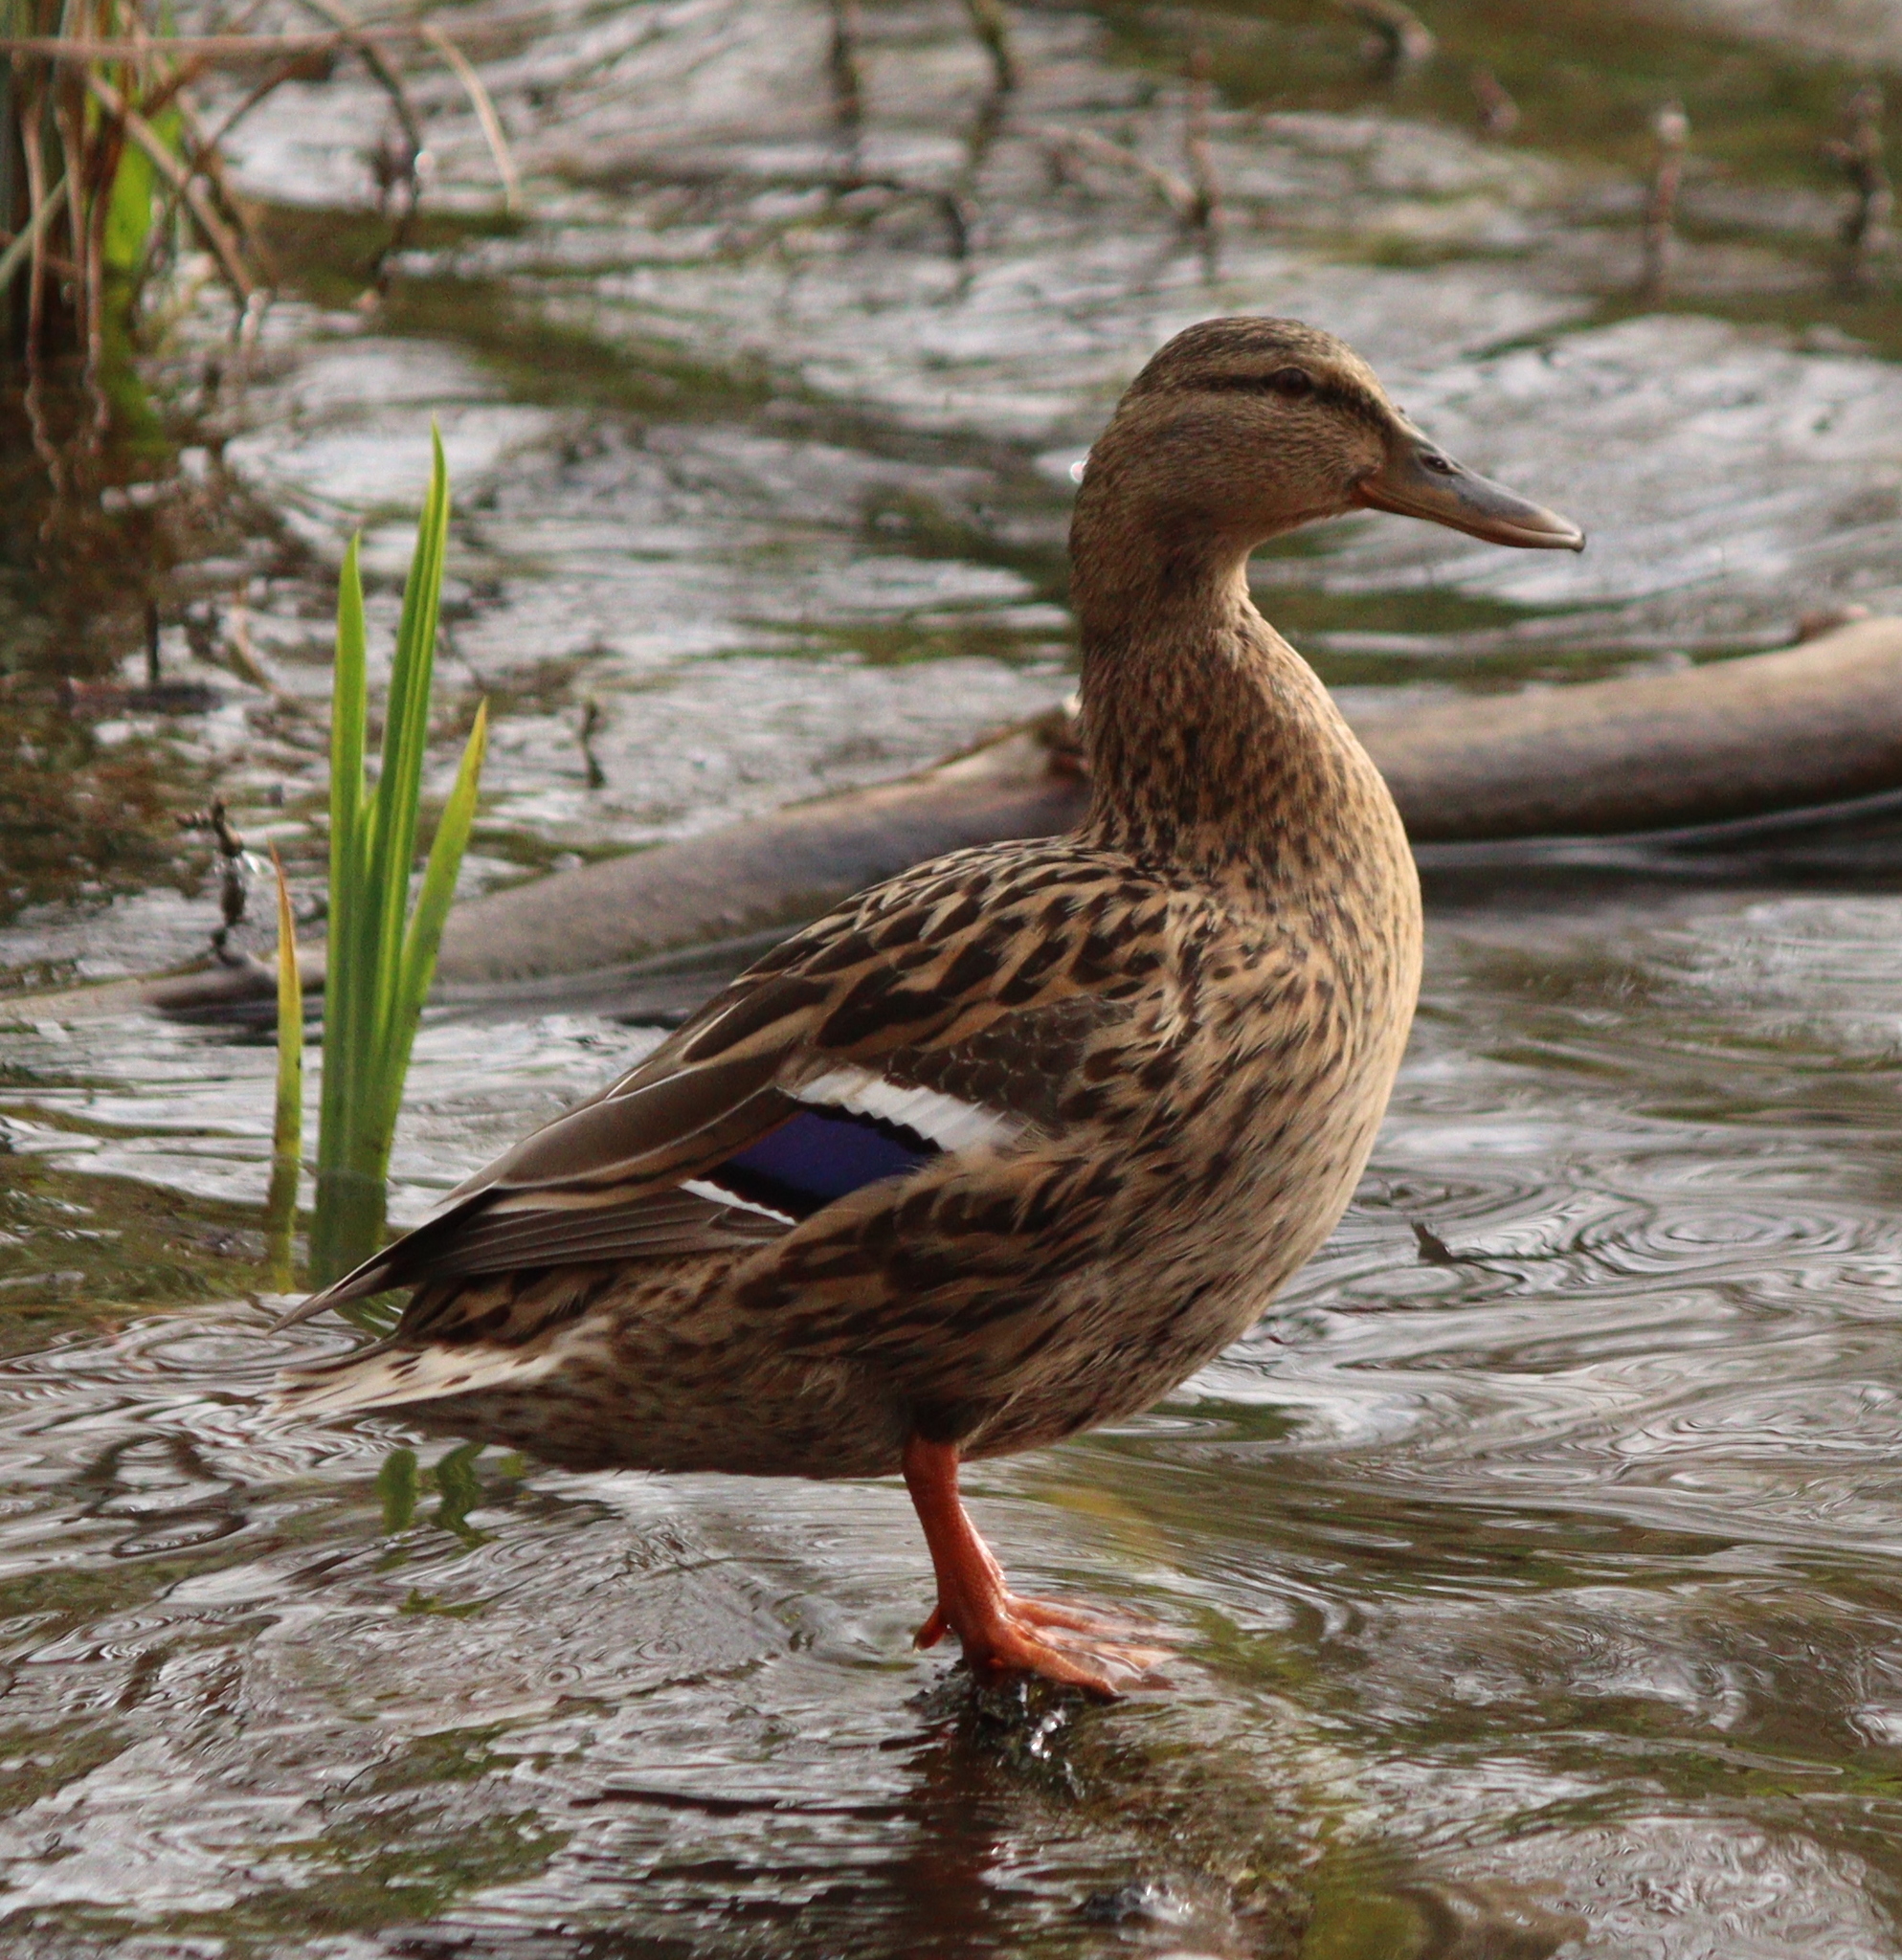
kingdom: Animalia
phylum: Chordata
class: Aves
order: Anseriformes
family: Anatidae
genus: Anas
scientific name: Anas platyrhynchos
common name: Mallard
